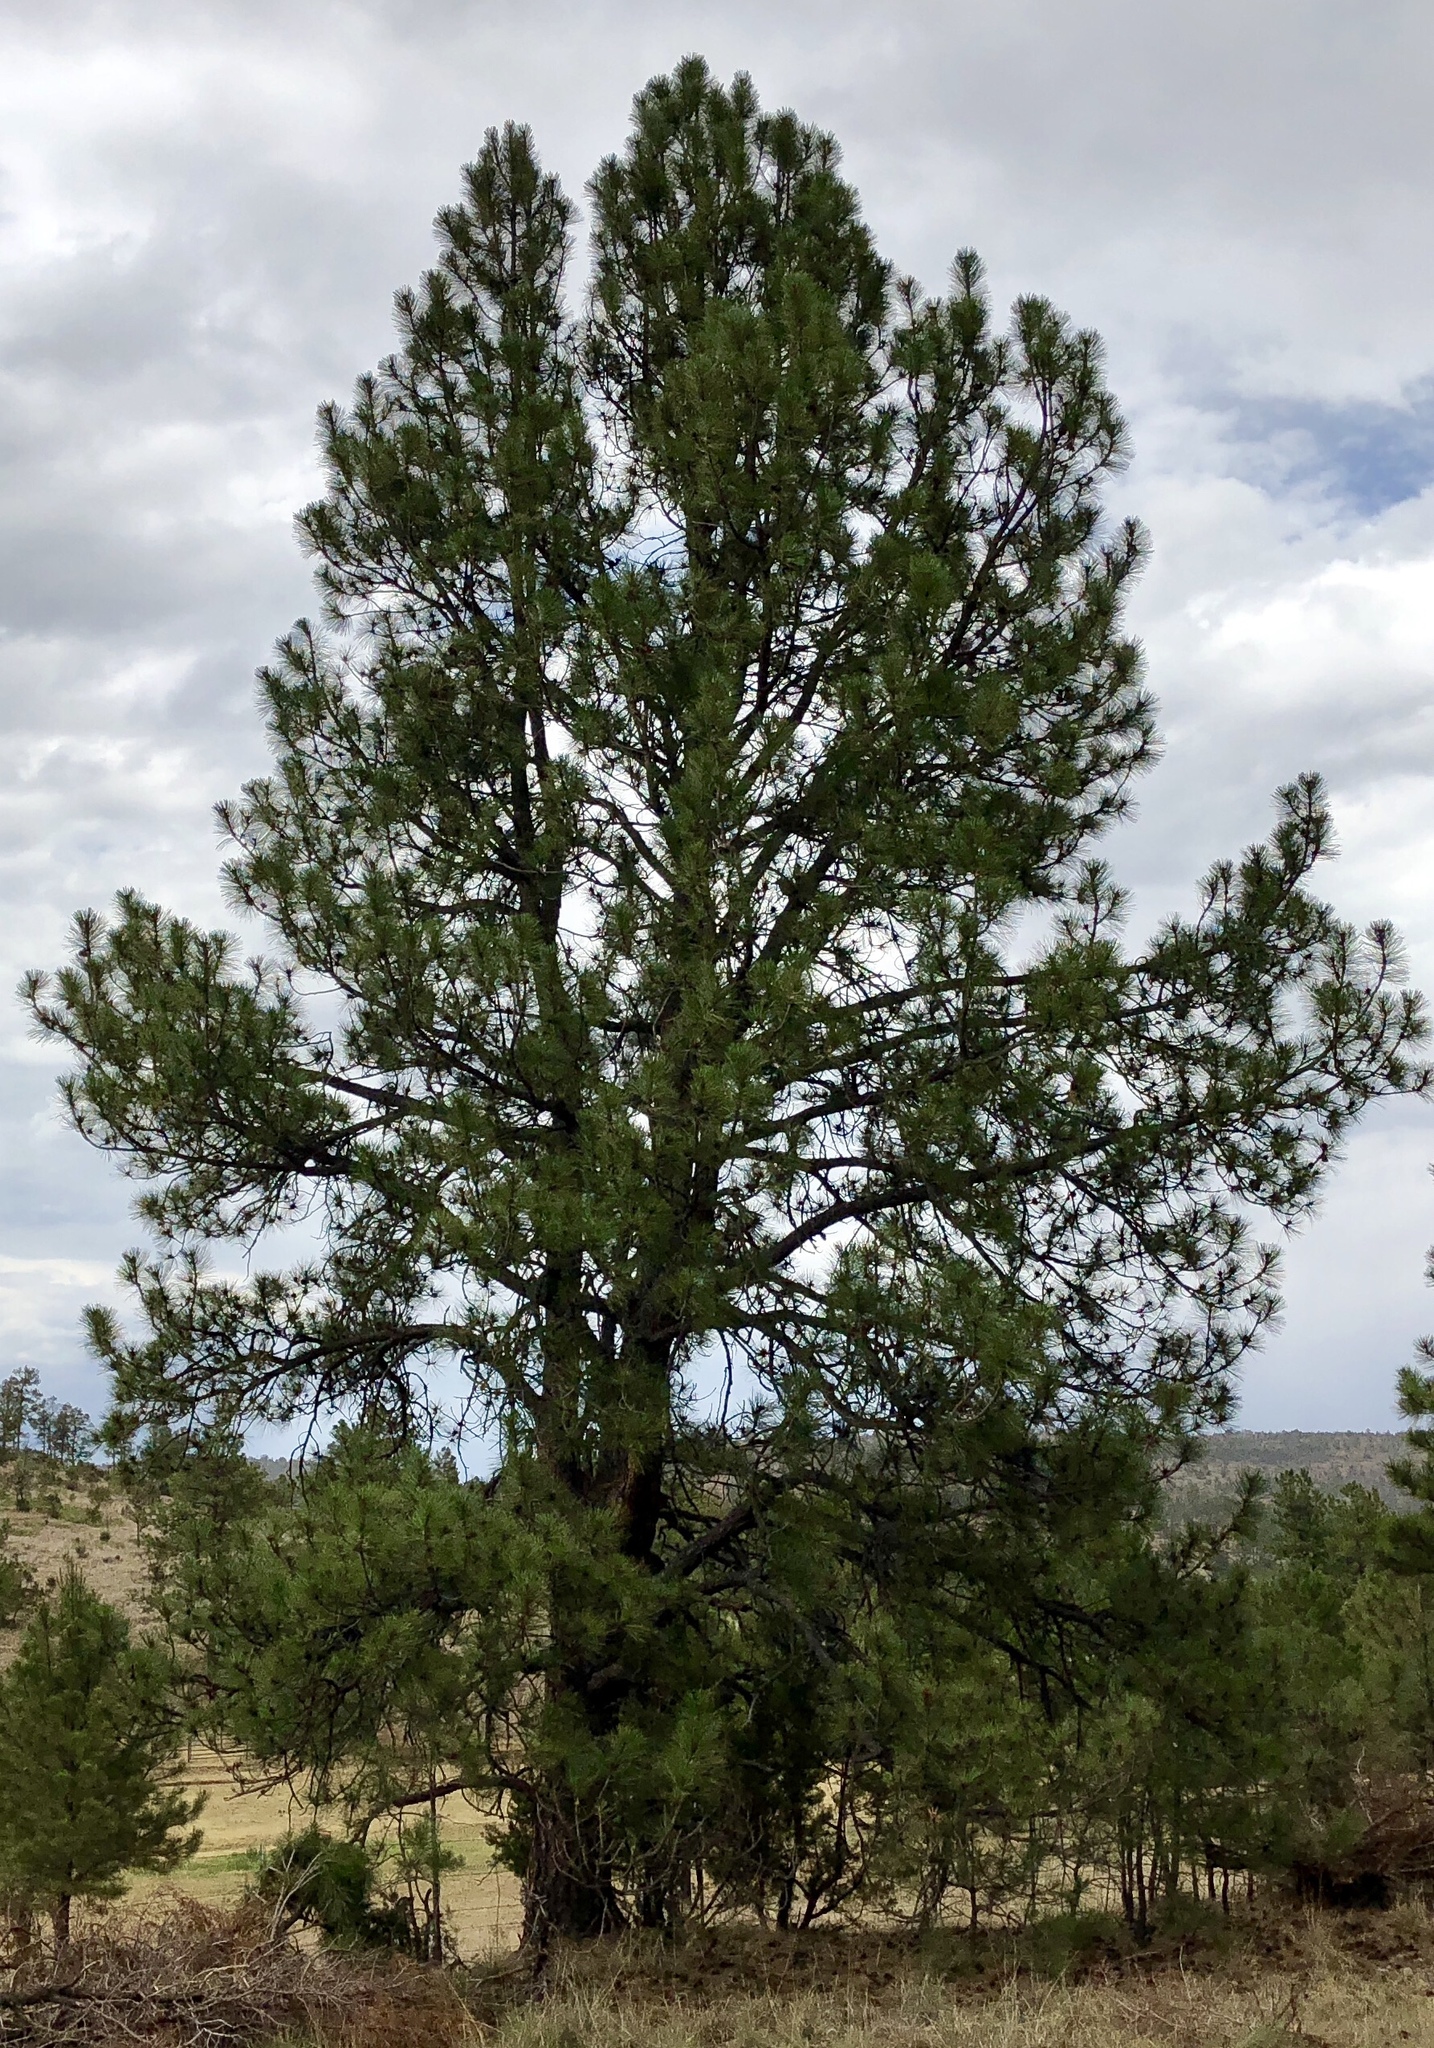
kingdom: Plantae
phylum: Tracheophyta
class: Pinopsida
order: Pinales
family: Pinaceae
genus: Pinus
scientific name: Pinus ponderosa
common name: Western yellow-pine
